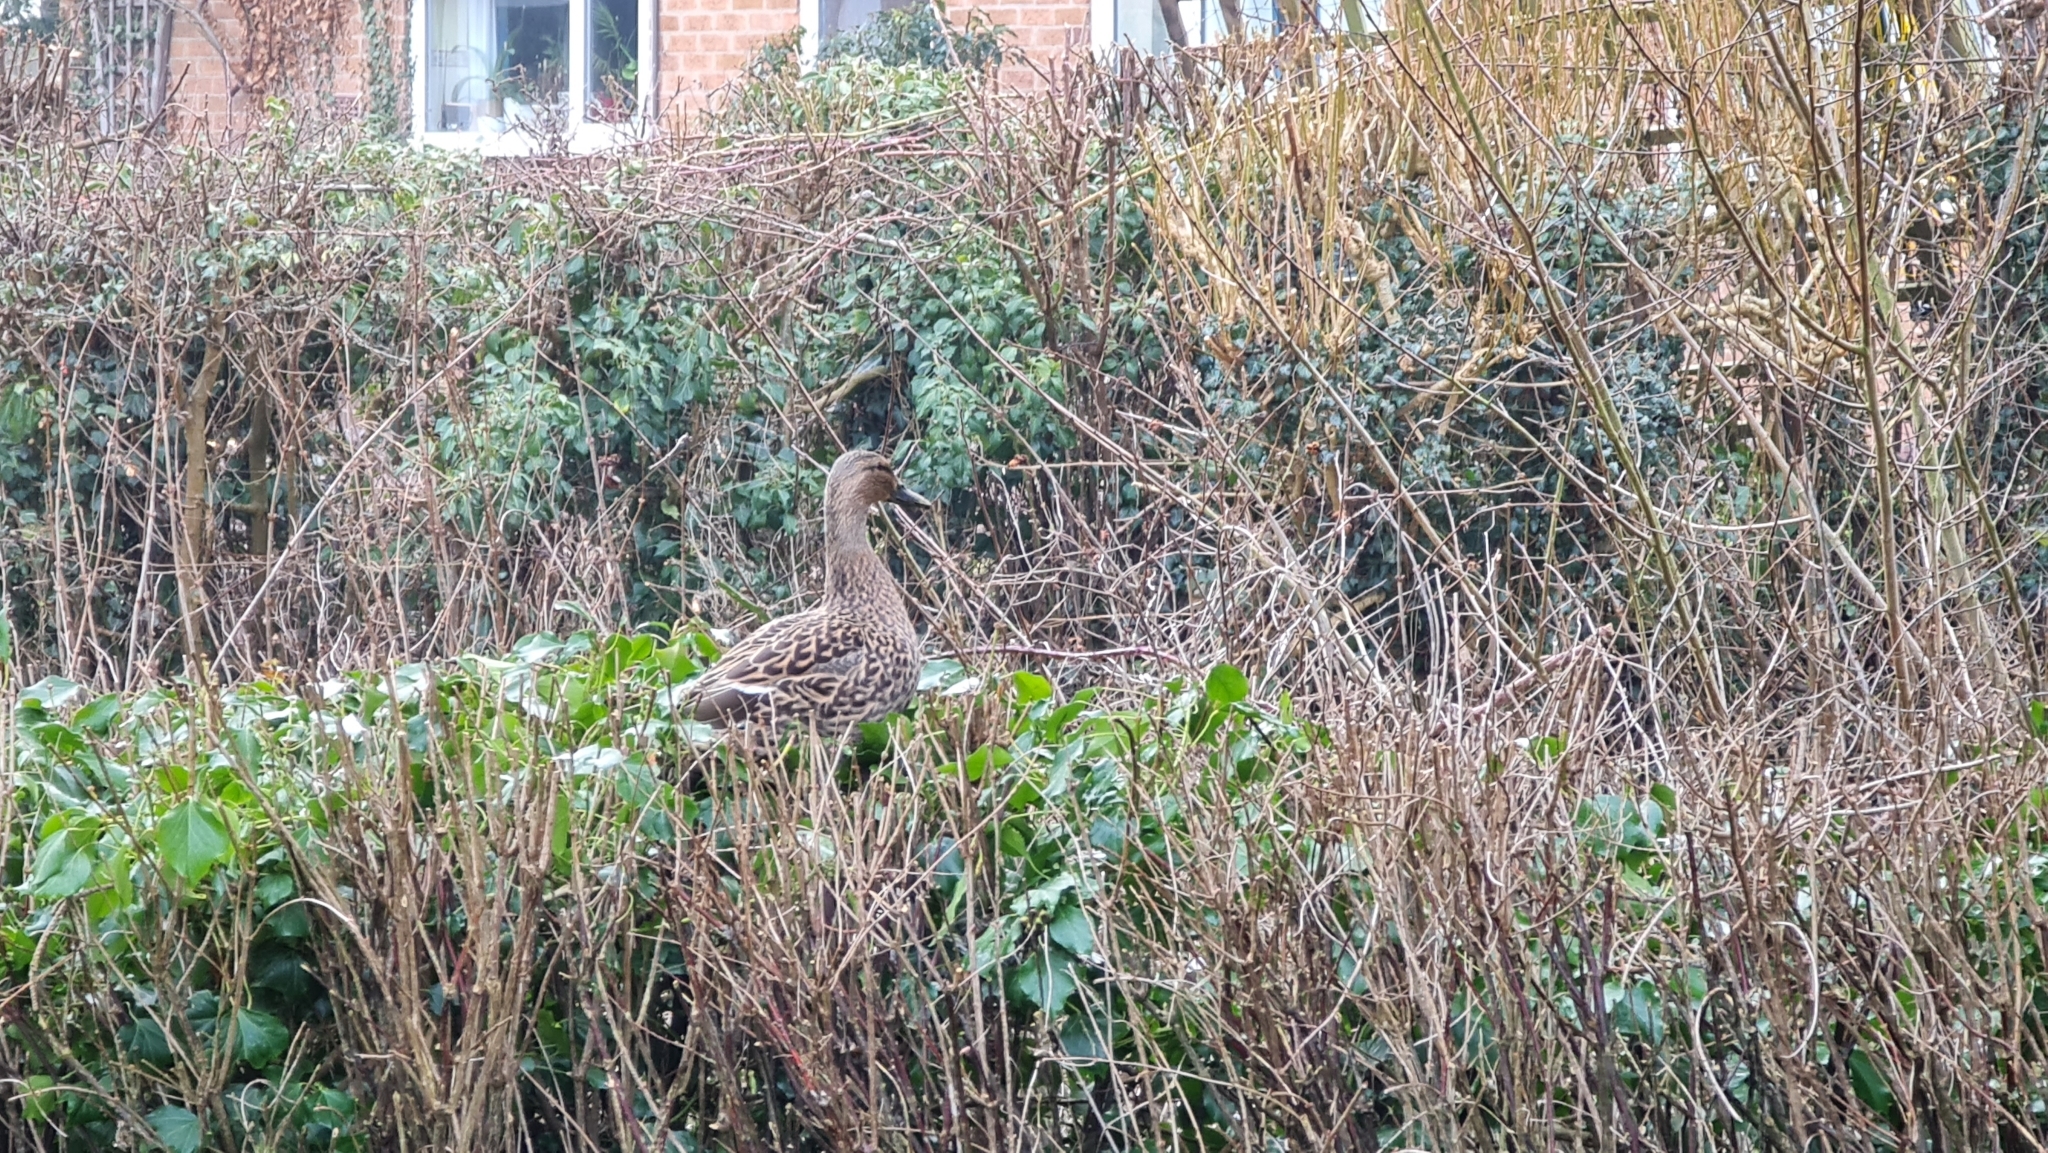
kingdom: Animalia
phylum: Chordata
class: Aves
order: Anseriformes
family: Anatidae
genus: Anas
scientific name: Anas platyrhynchos
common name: Mallard
